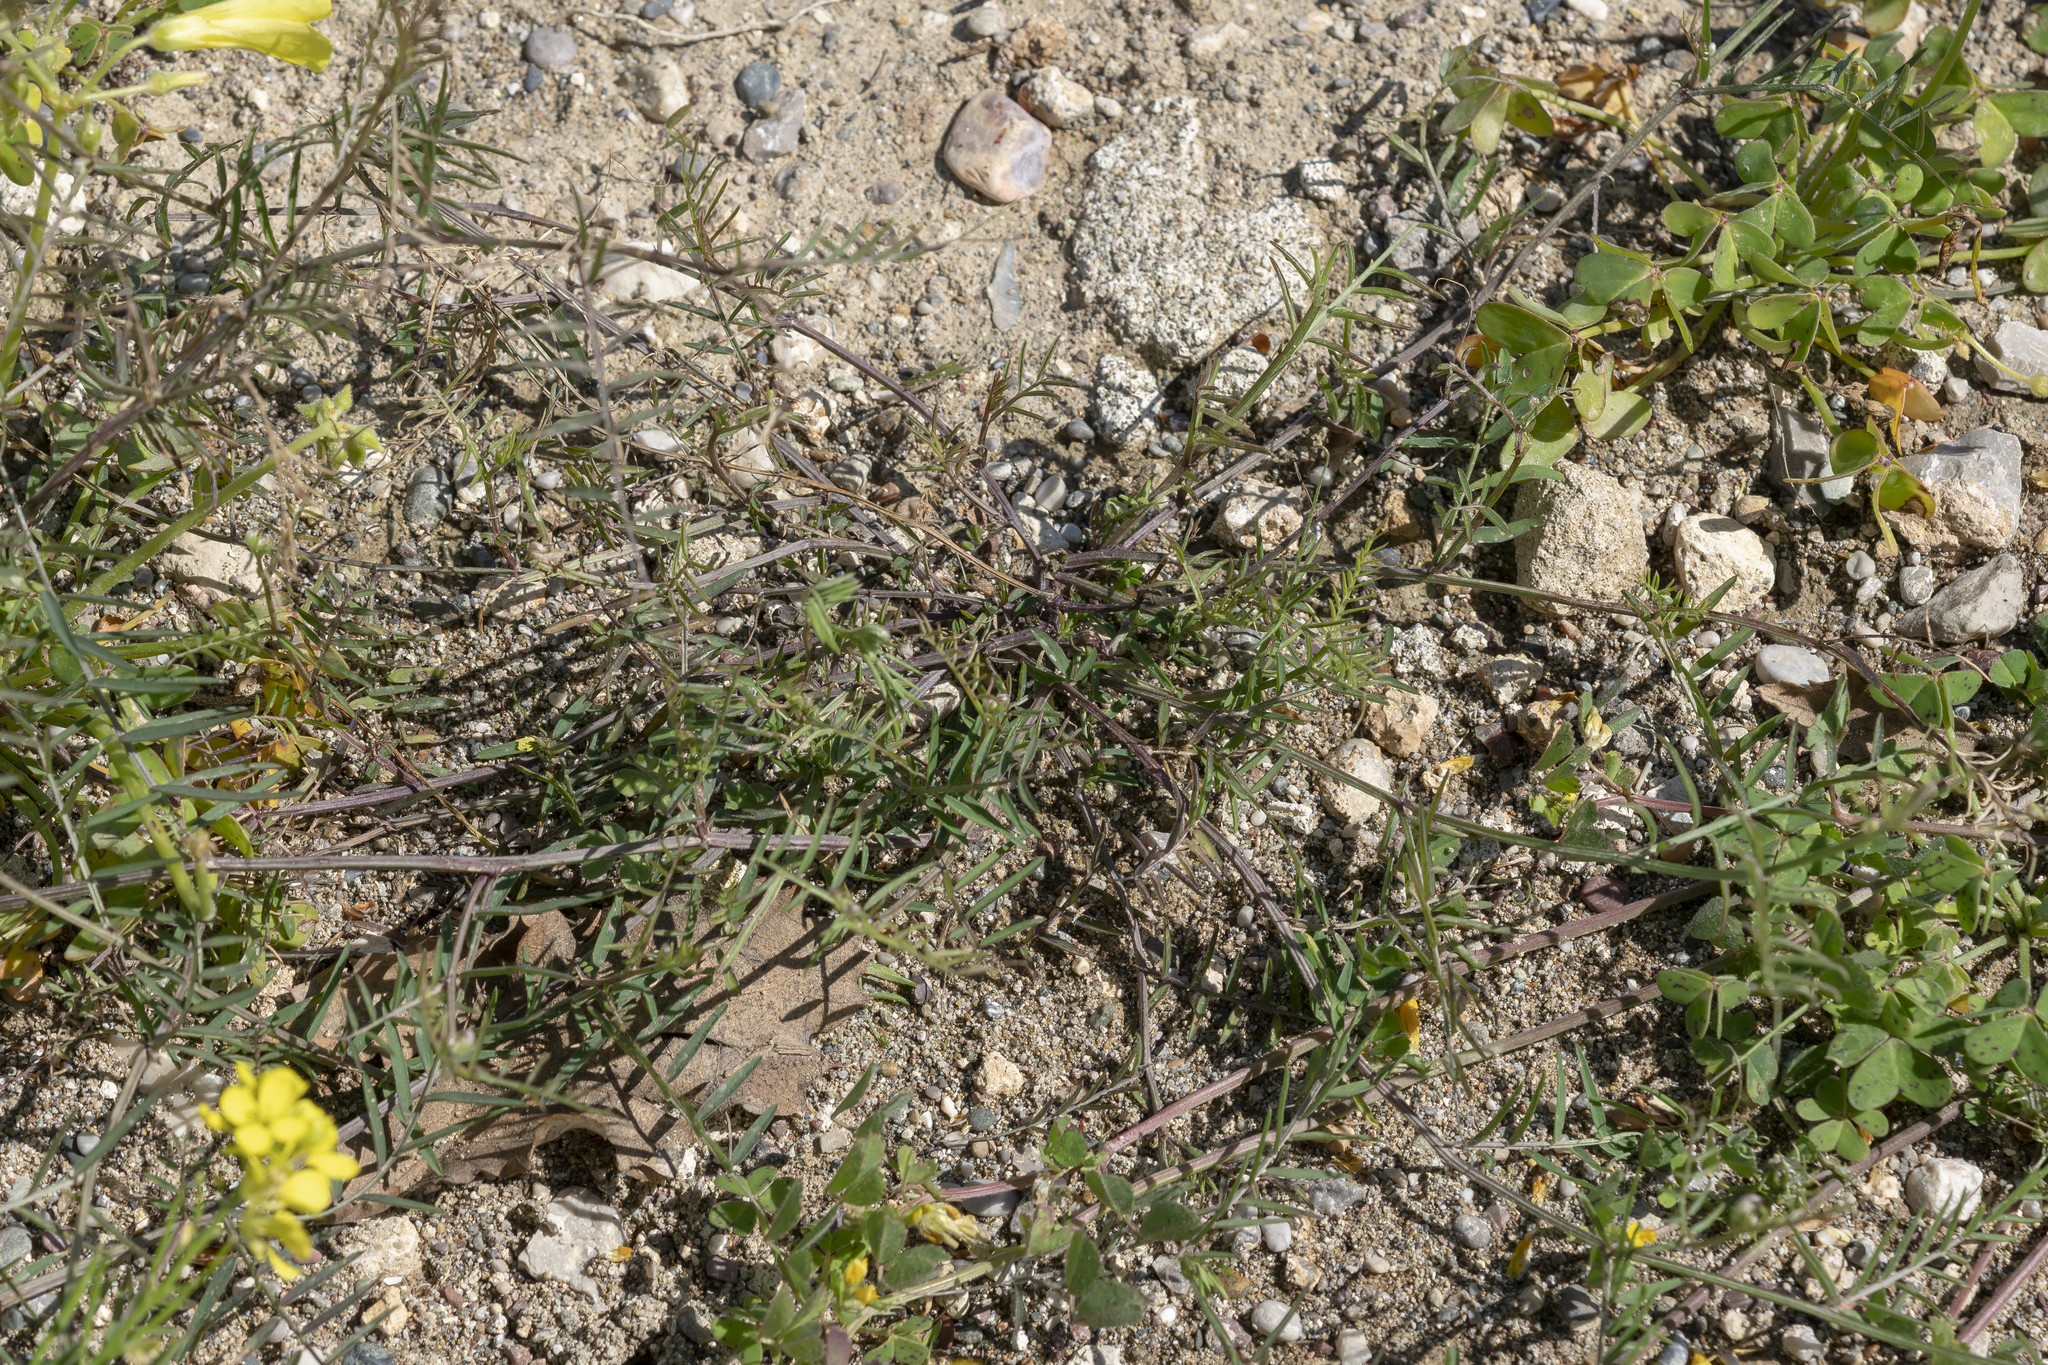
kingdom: Plantae
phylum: Tracheophyta
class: Magnoliopsida
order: Fabales
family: Fabaceae
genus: Vicia
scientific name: Vicia palaestina
